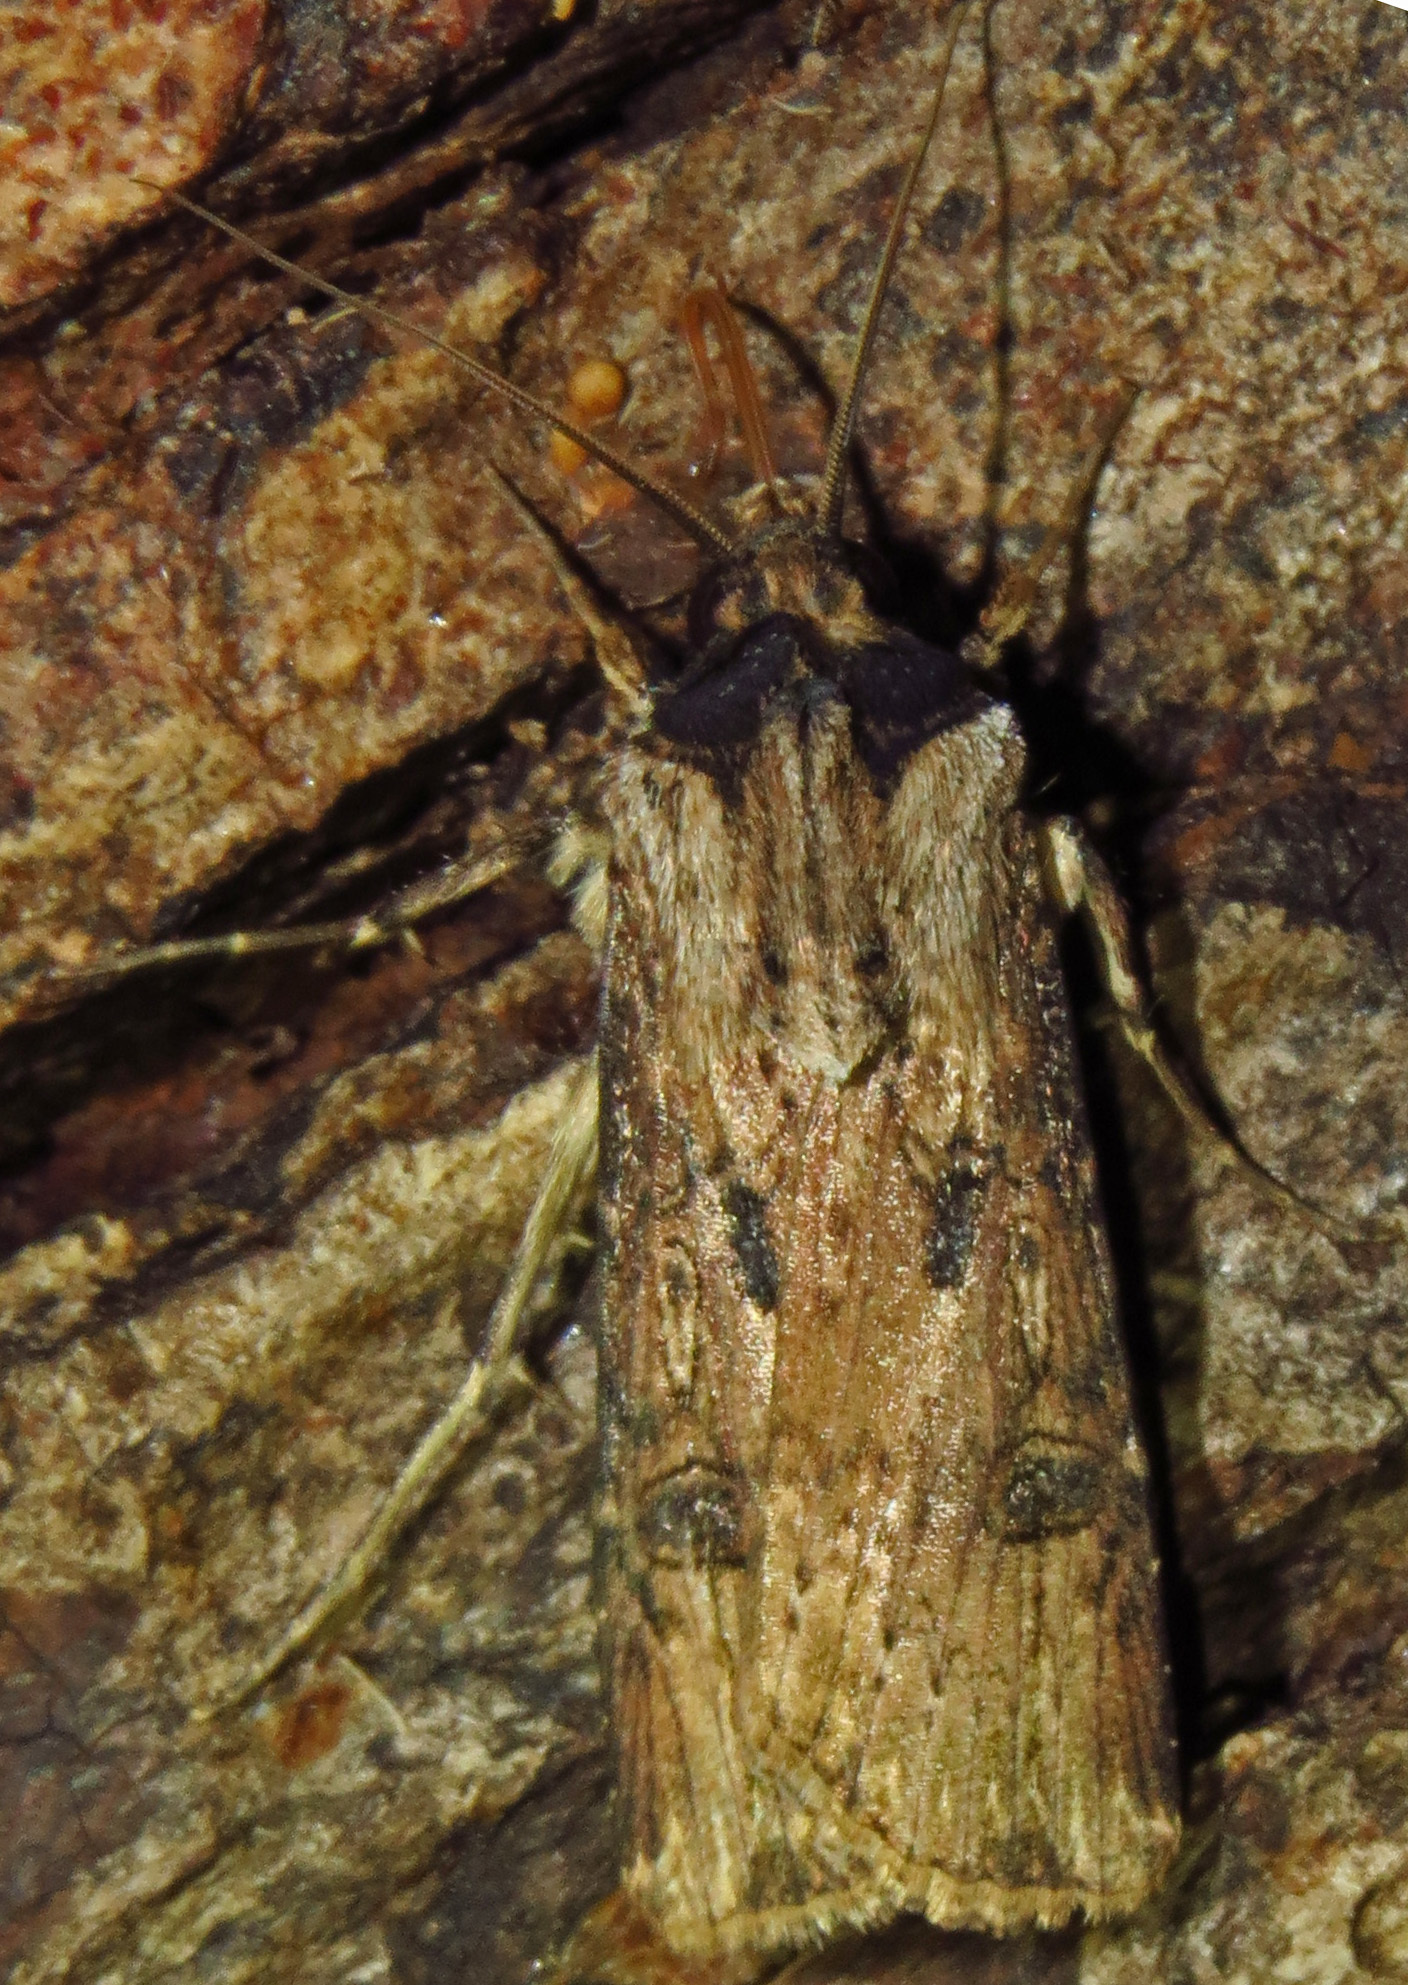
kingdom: Animalia
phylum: Arthropoda
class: Insecta
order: Lepidoptera
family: Noctuidae
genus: Agrotis
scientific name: Agrotis malefida
